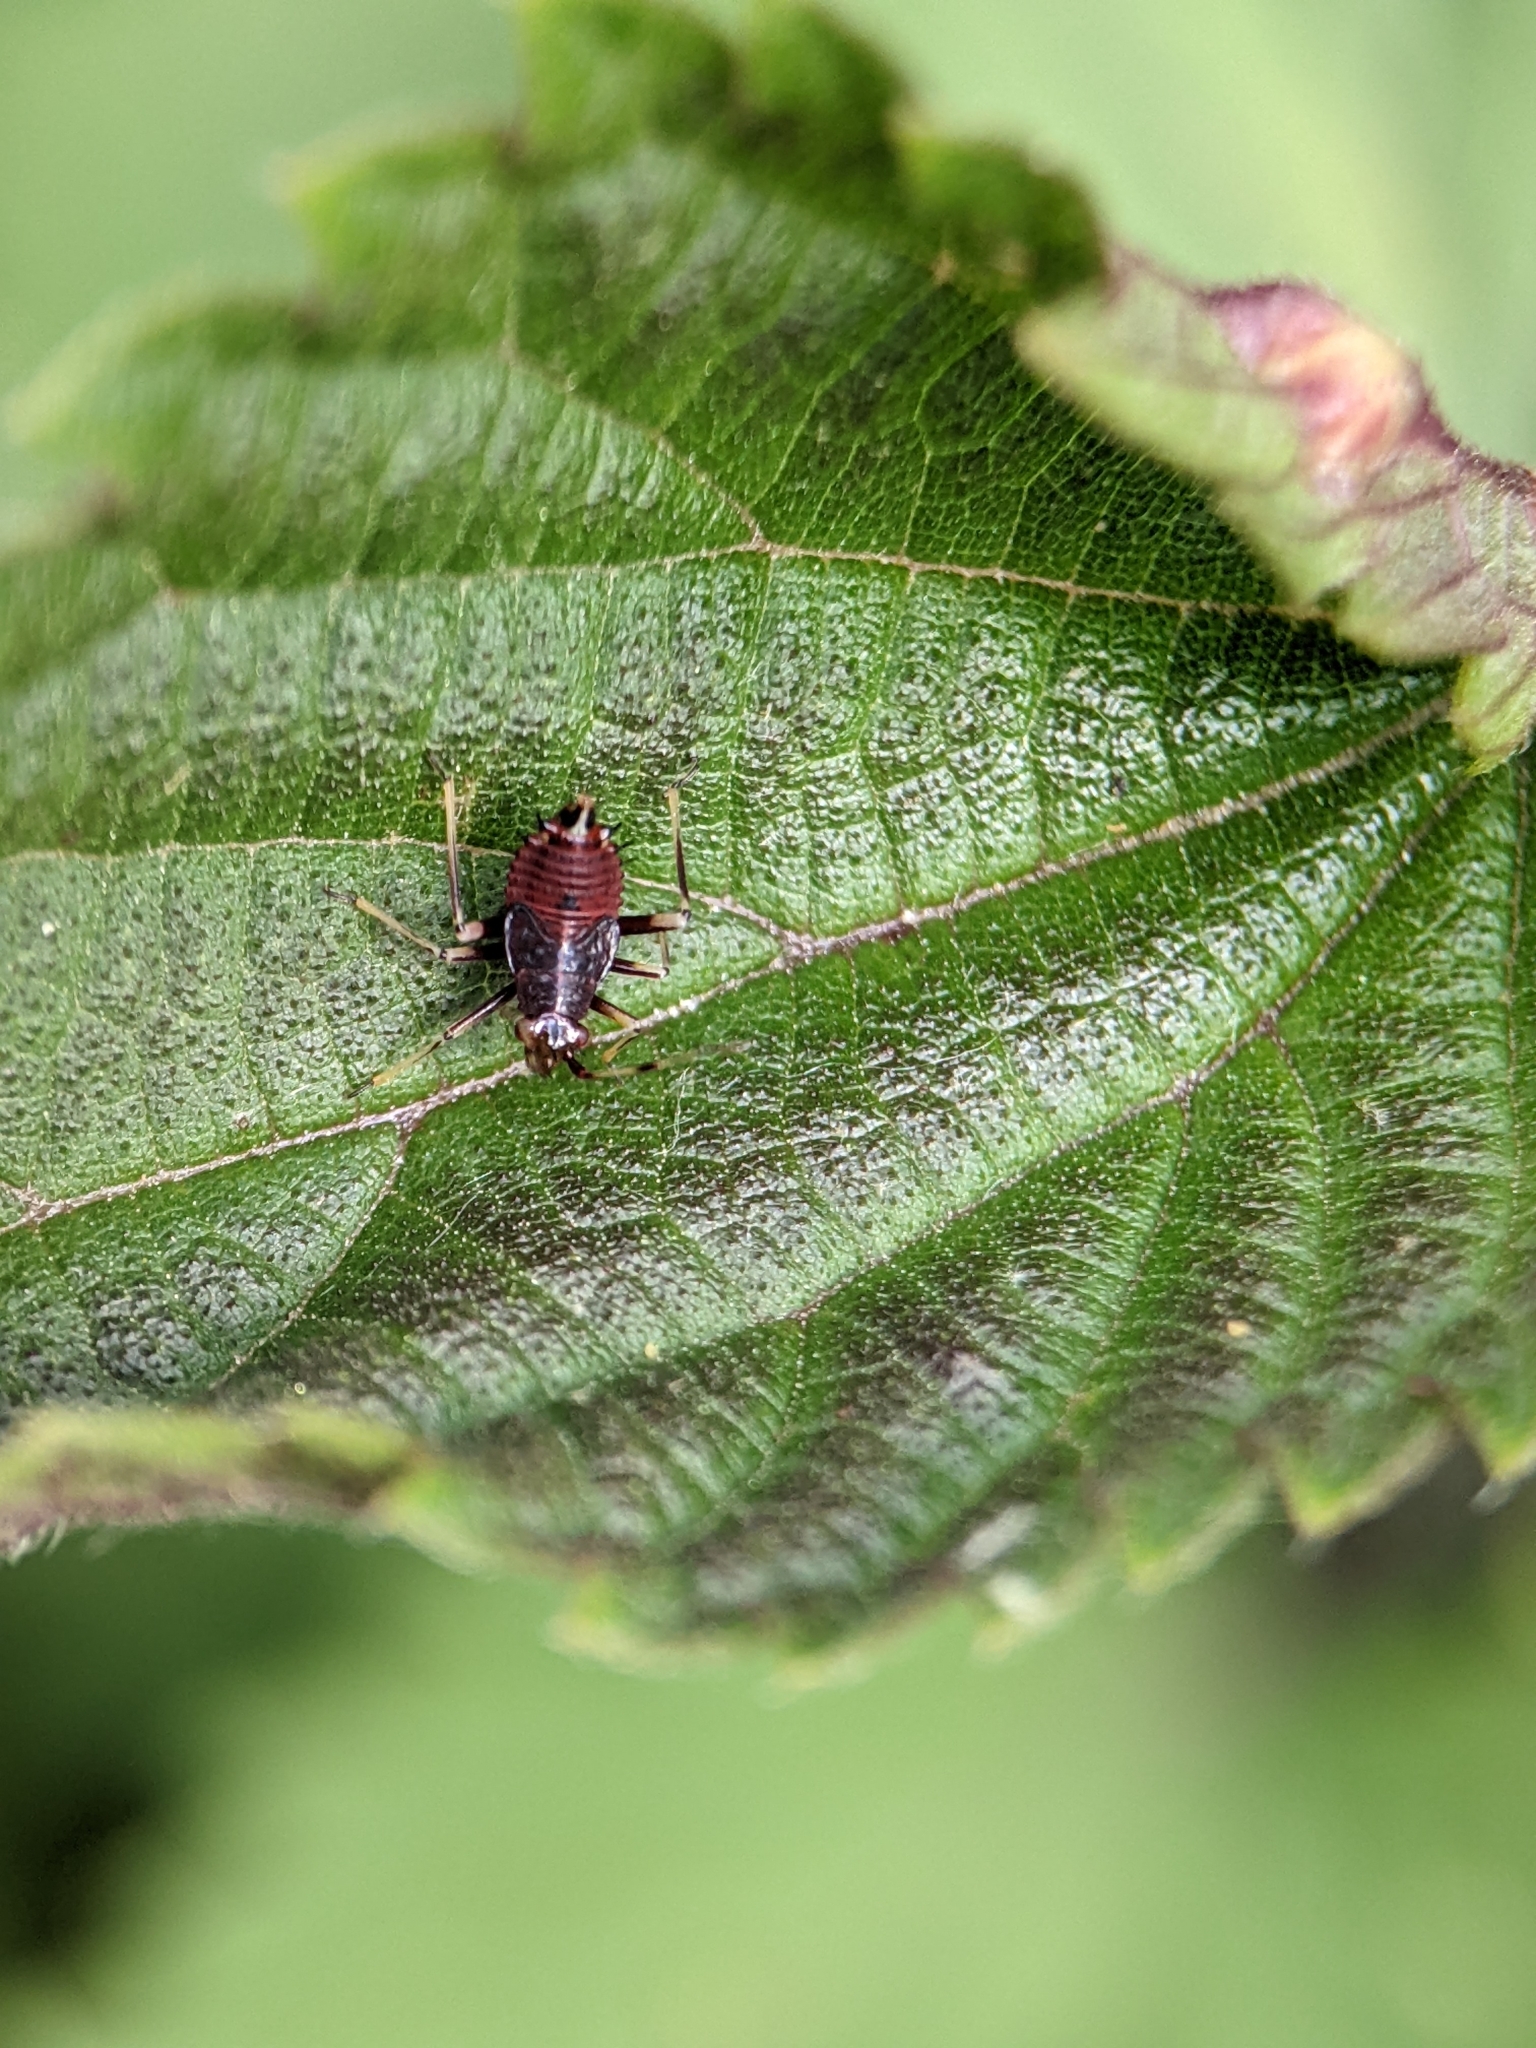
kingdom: Animalia
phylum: Arthropoda
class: Insecta
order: Hemiptera
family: Miridae
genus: Deraeocoris
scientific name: Deraeocoris ruber
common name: Plant bug
